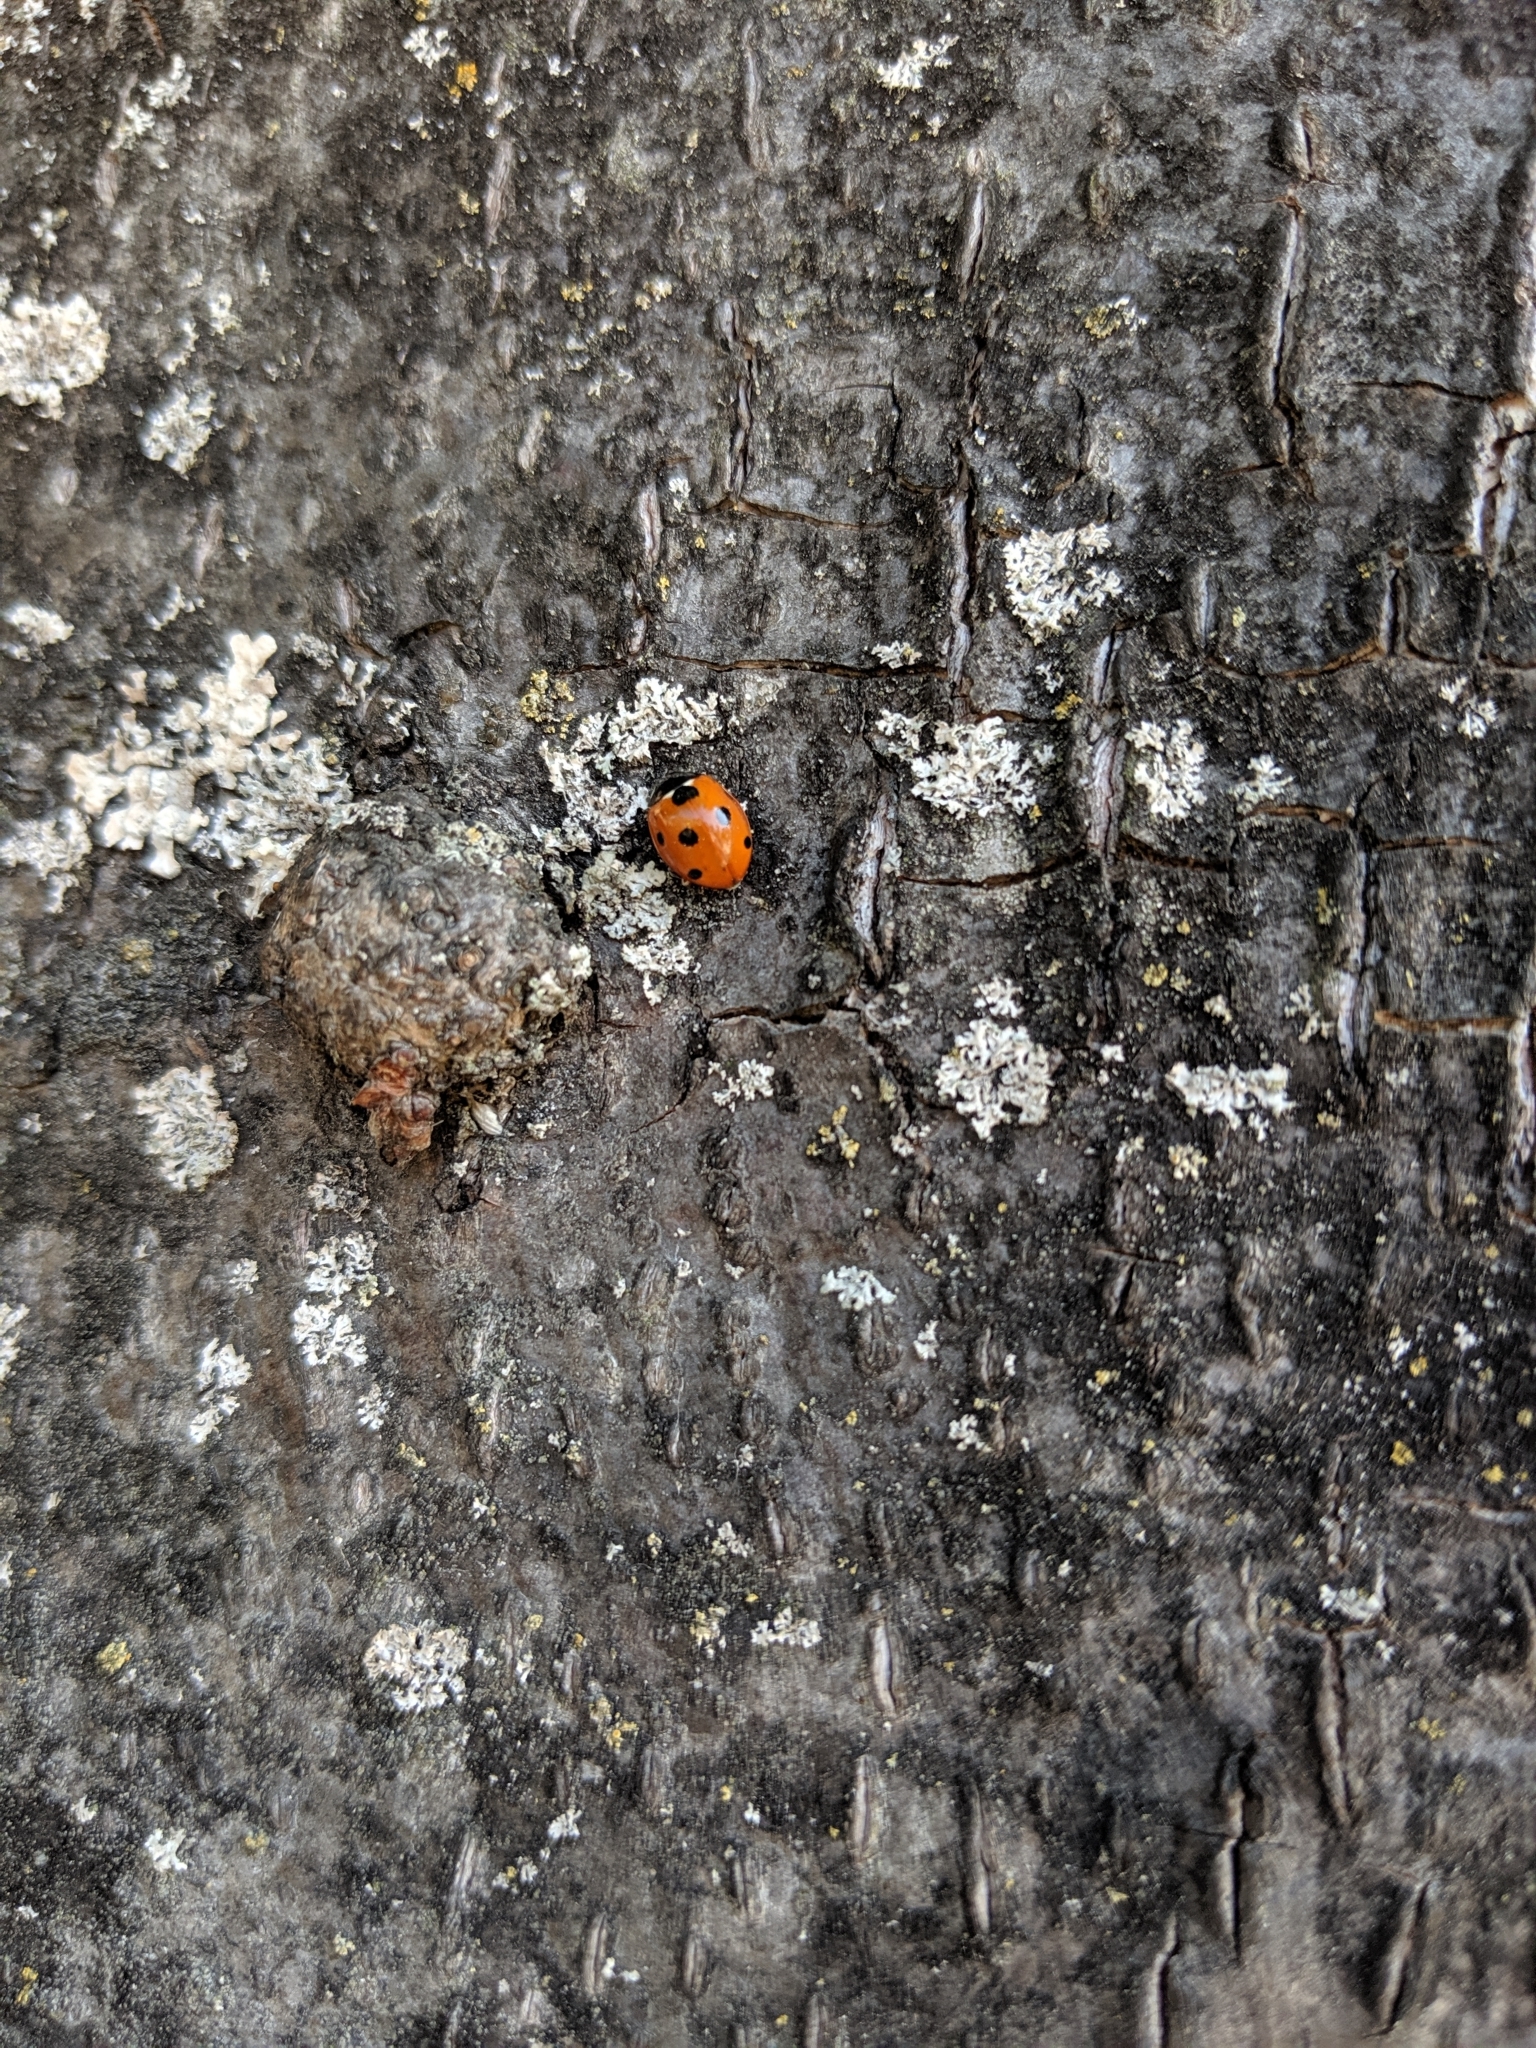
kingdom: Animalia
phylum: Arthropoda
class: Insecta
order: Coleoptera
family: Coccinellidae
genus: Coccinella
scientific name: Coccinella septempunctata
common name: Sevenspotted lady beetle
